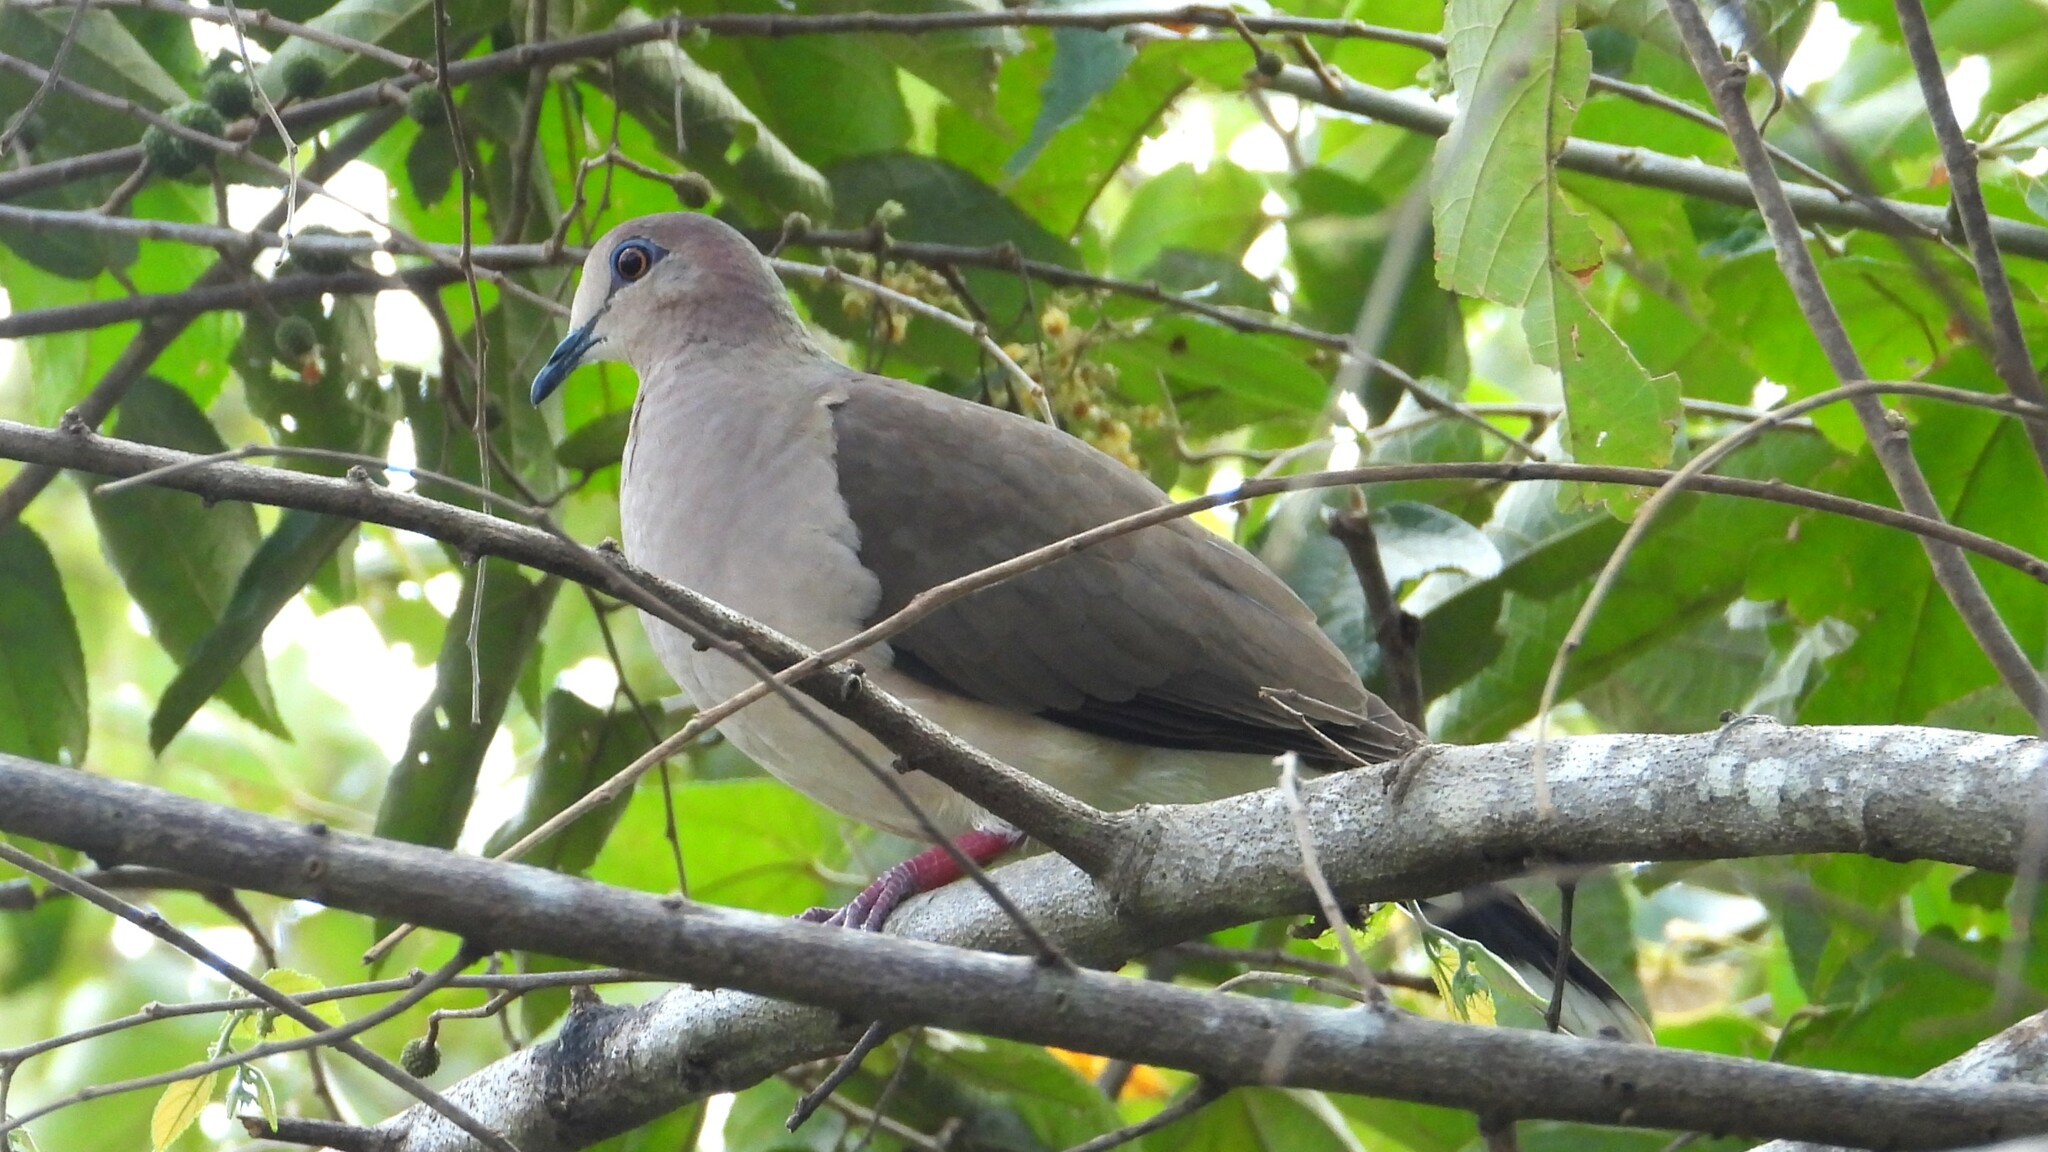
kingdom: Animalia
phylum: Chordata
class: Aves
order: Columbiformes
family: Columbidae
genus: Leptotila
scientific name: Leptotila verreauxi
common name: White-tipped dove
